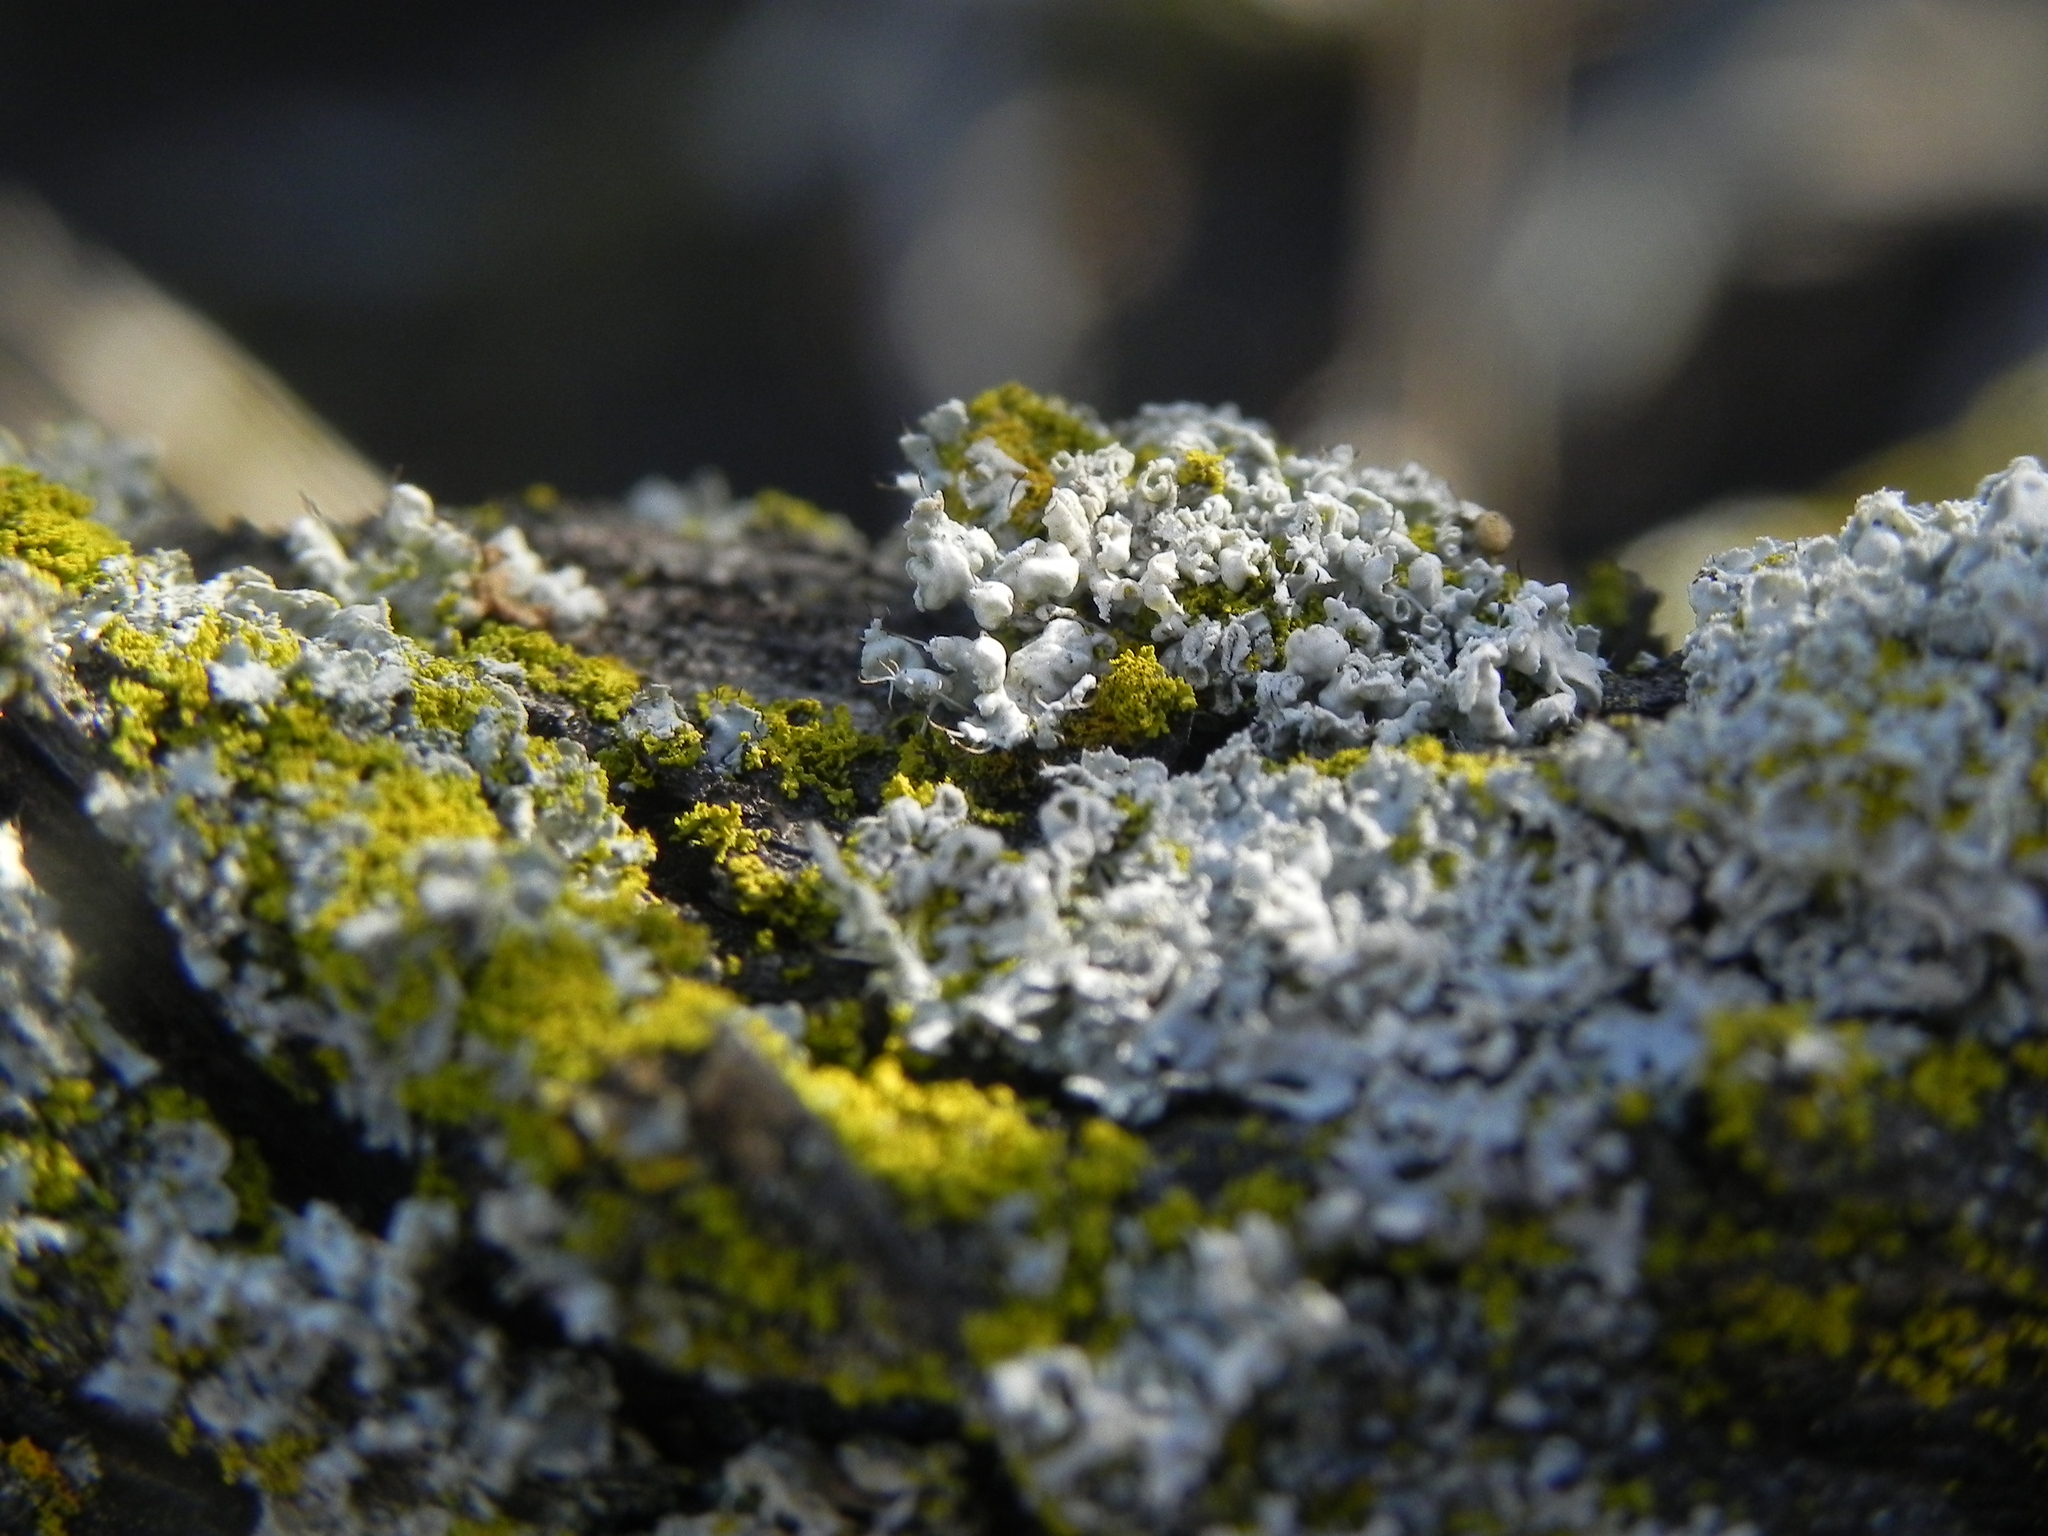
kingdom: Fungi
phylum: Ascomycota
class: Lecanoromycetes
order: Caliciales
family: Physciaceae
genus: Physcia
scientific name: Physcia adscendens
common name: Hooded rosette lichen
